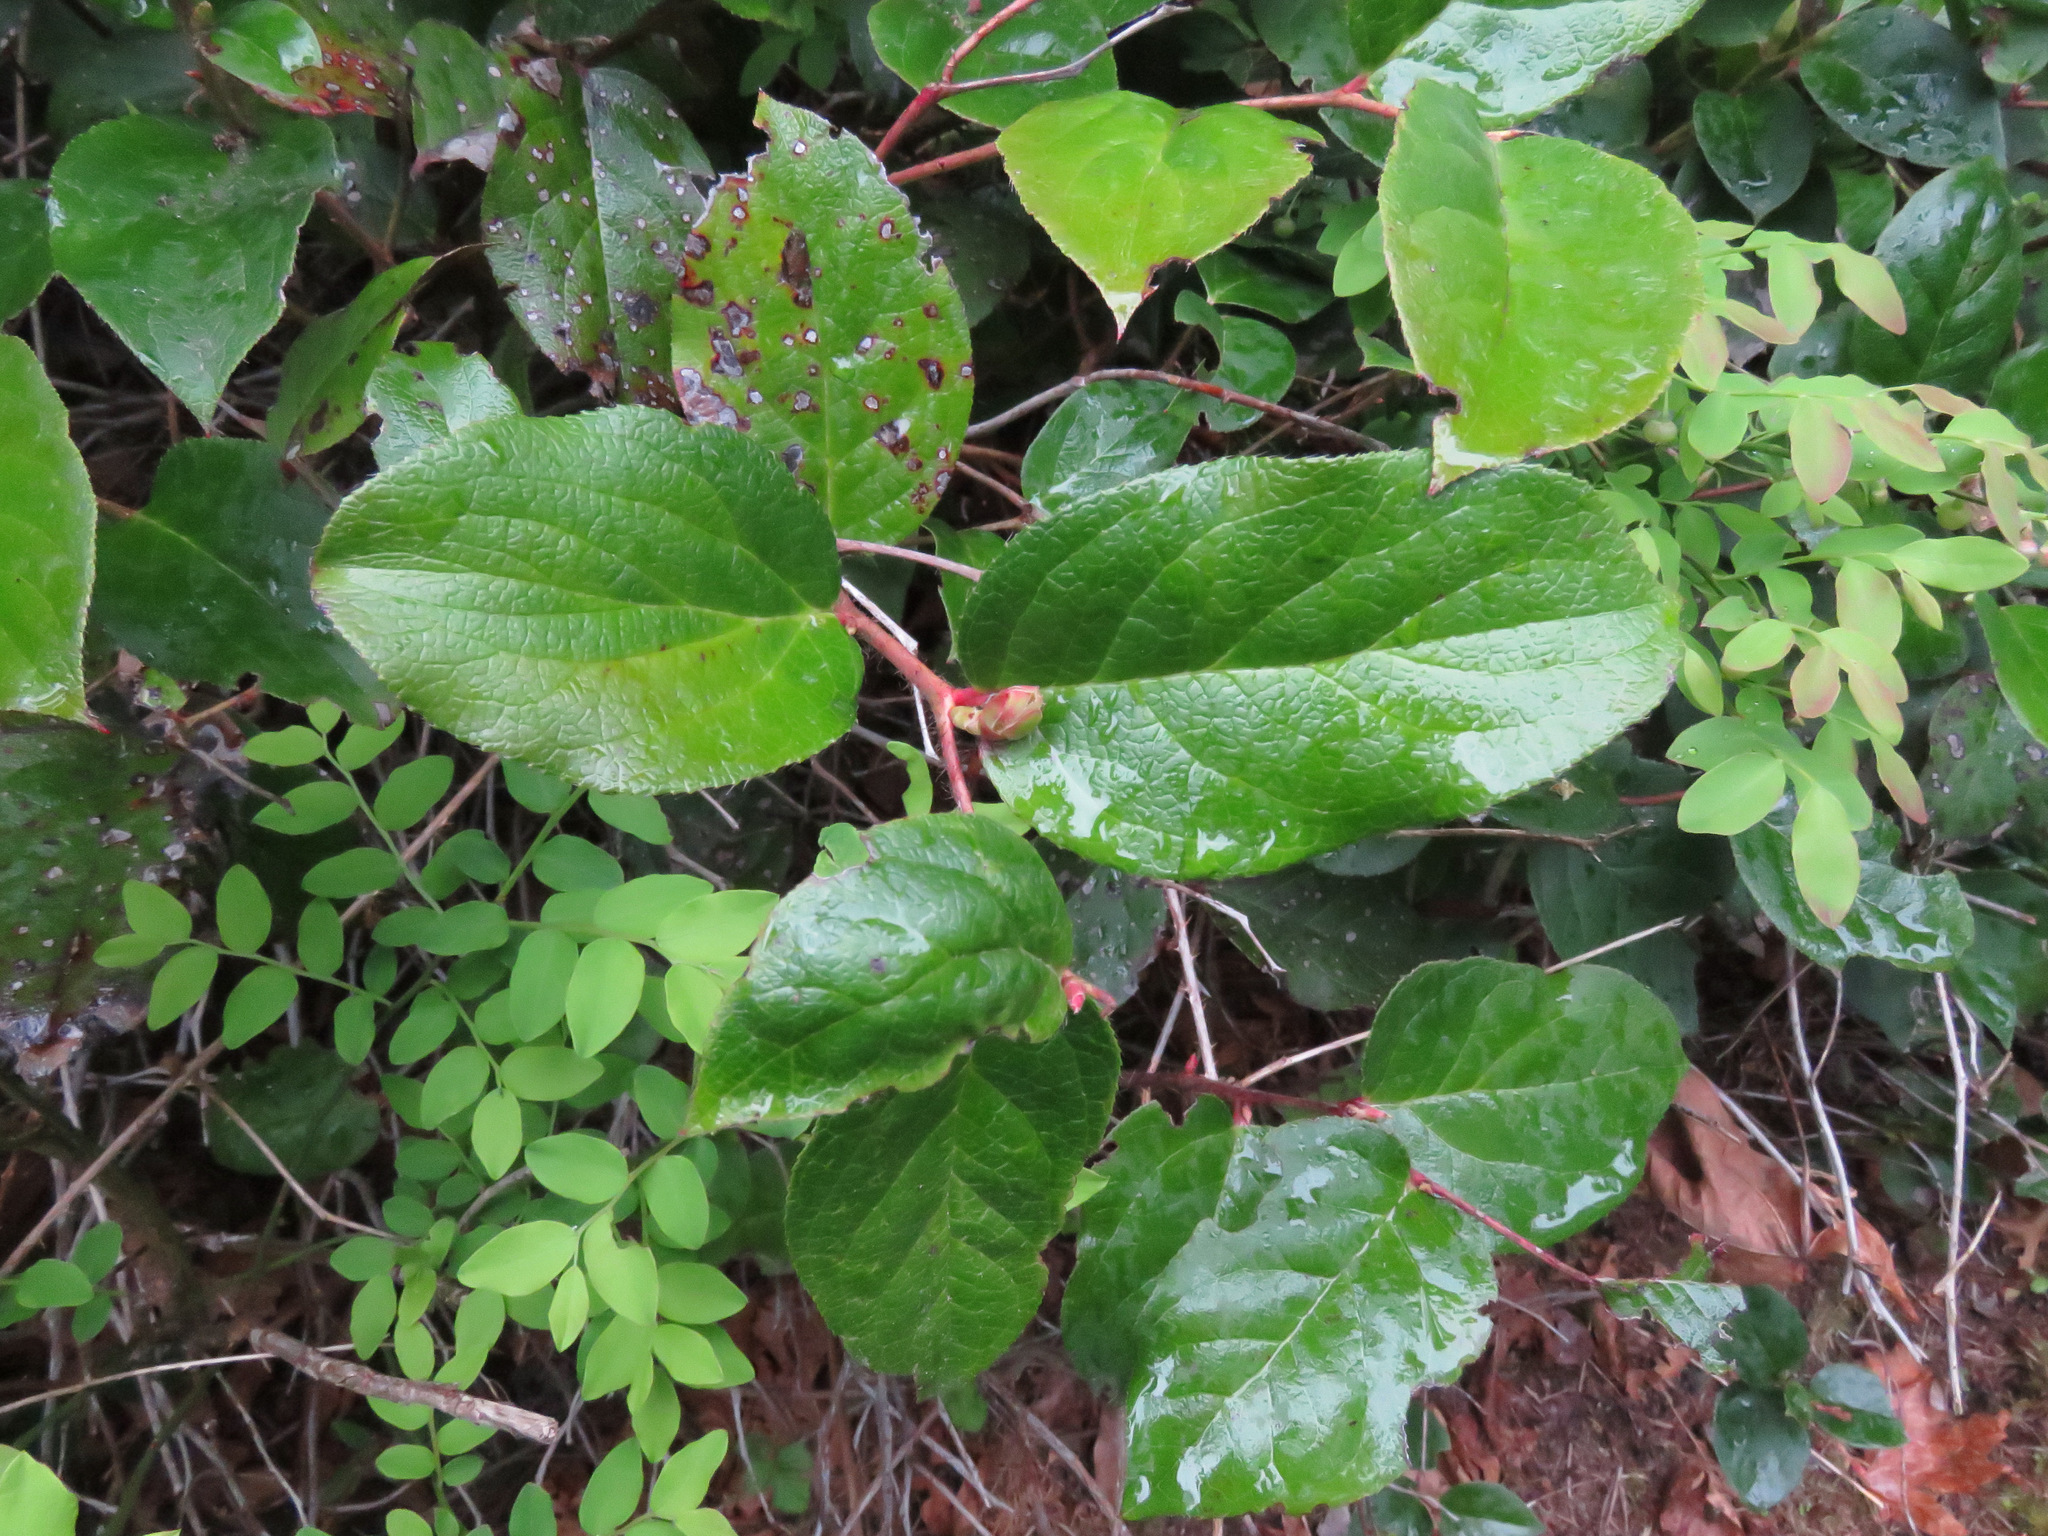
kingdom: Plantae
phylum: Tracheophyta
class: Magnoliopsida
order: Ericales
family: Ericaceae
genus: Gaultheria
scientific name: Gaultheria shallon
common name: Shallon
